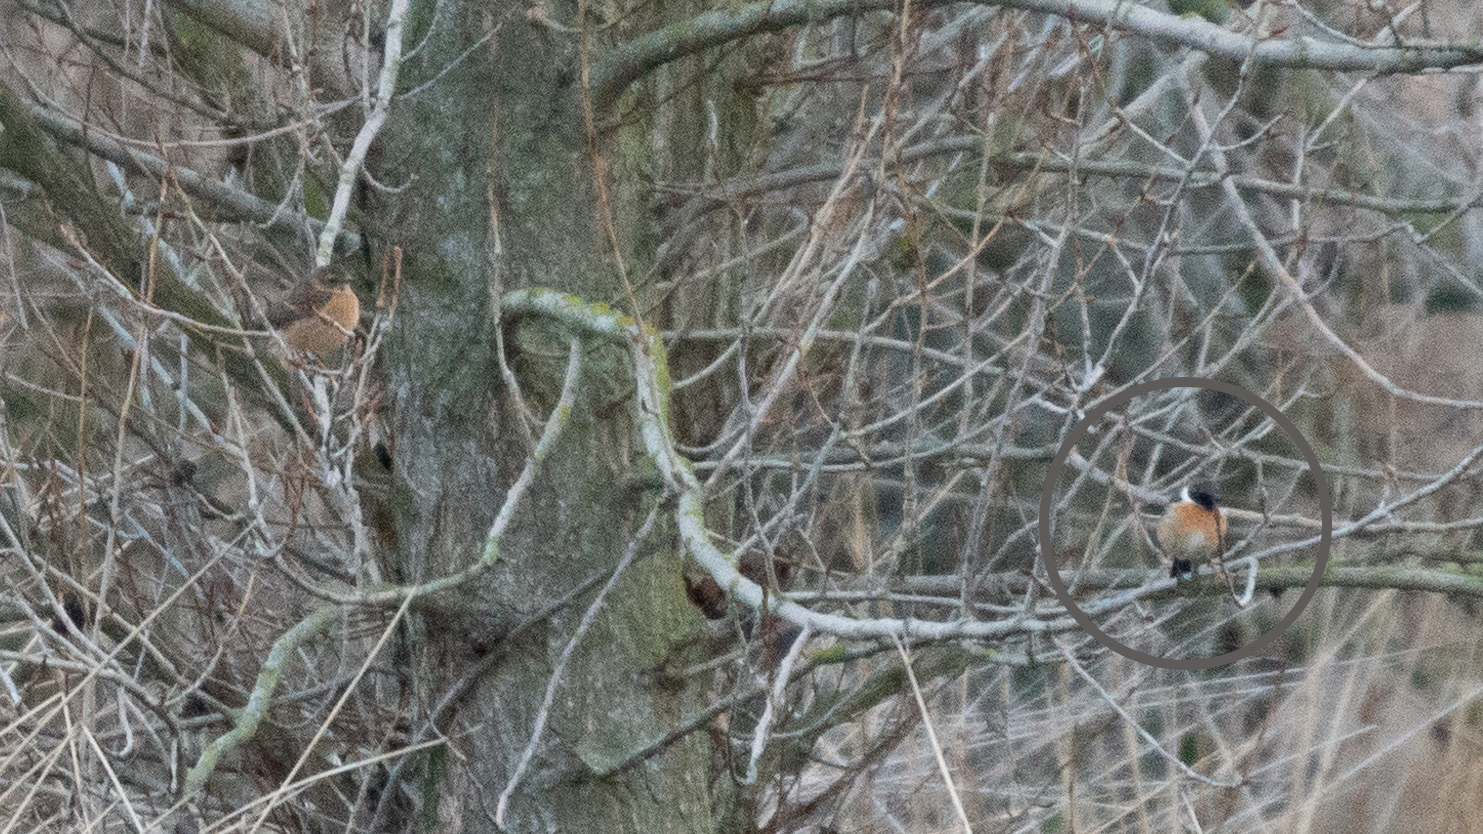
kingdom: Animalia
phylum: Chordata
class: Aves
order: Passeriformes
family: Muscicapidae
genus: Saxicola
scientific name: Saxicola rubicola
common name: European stonechat
